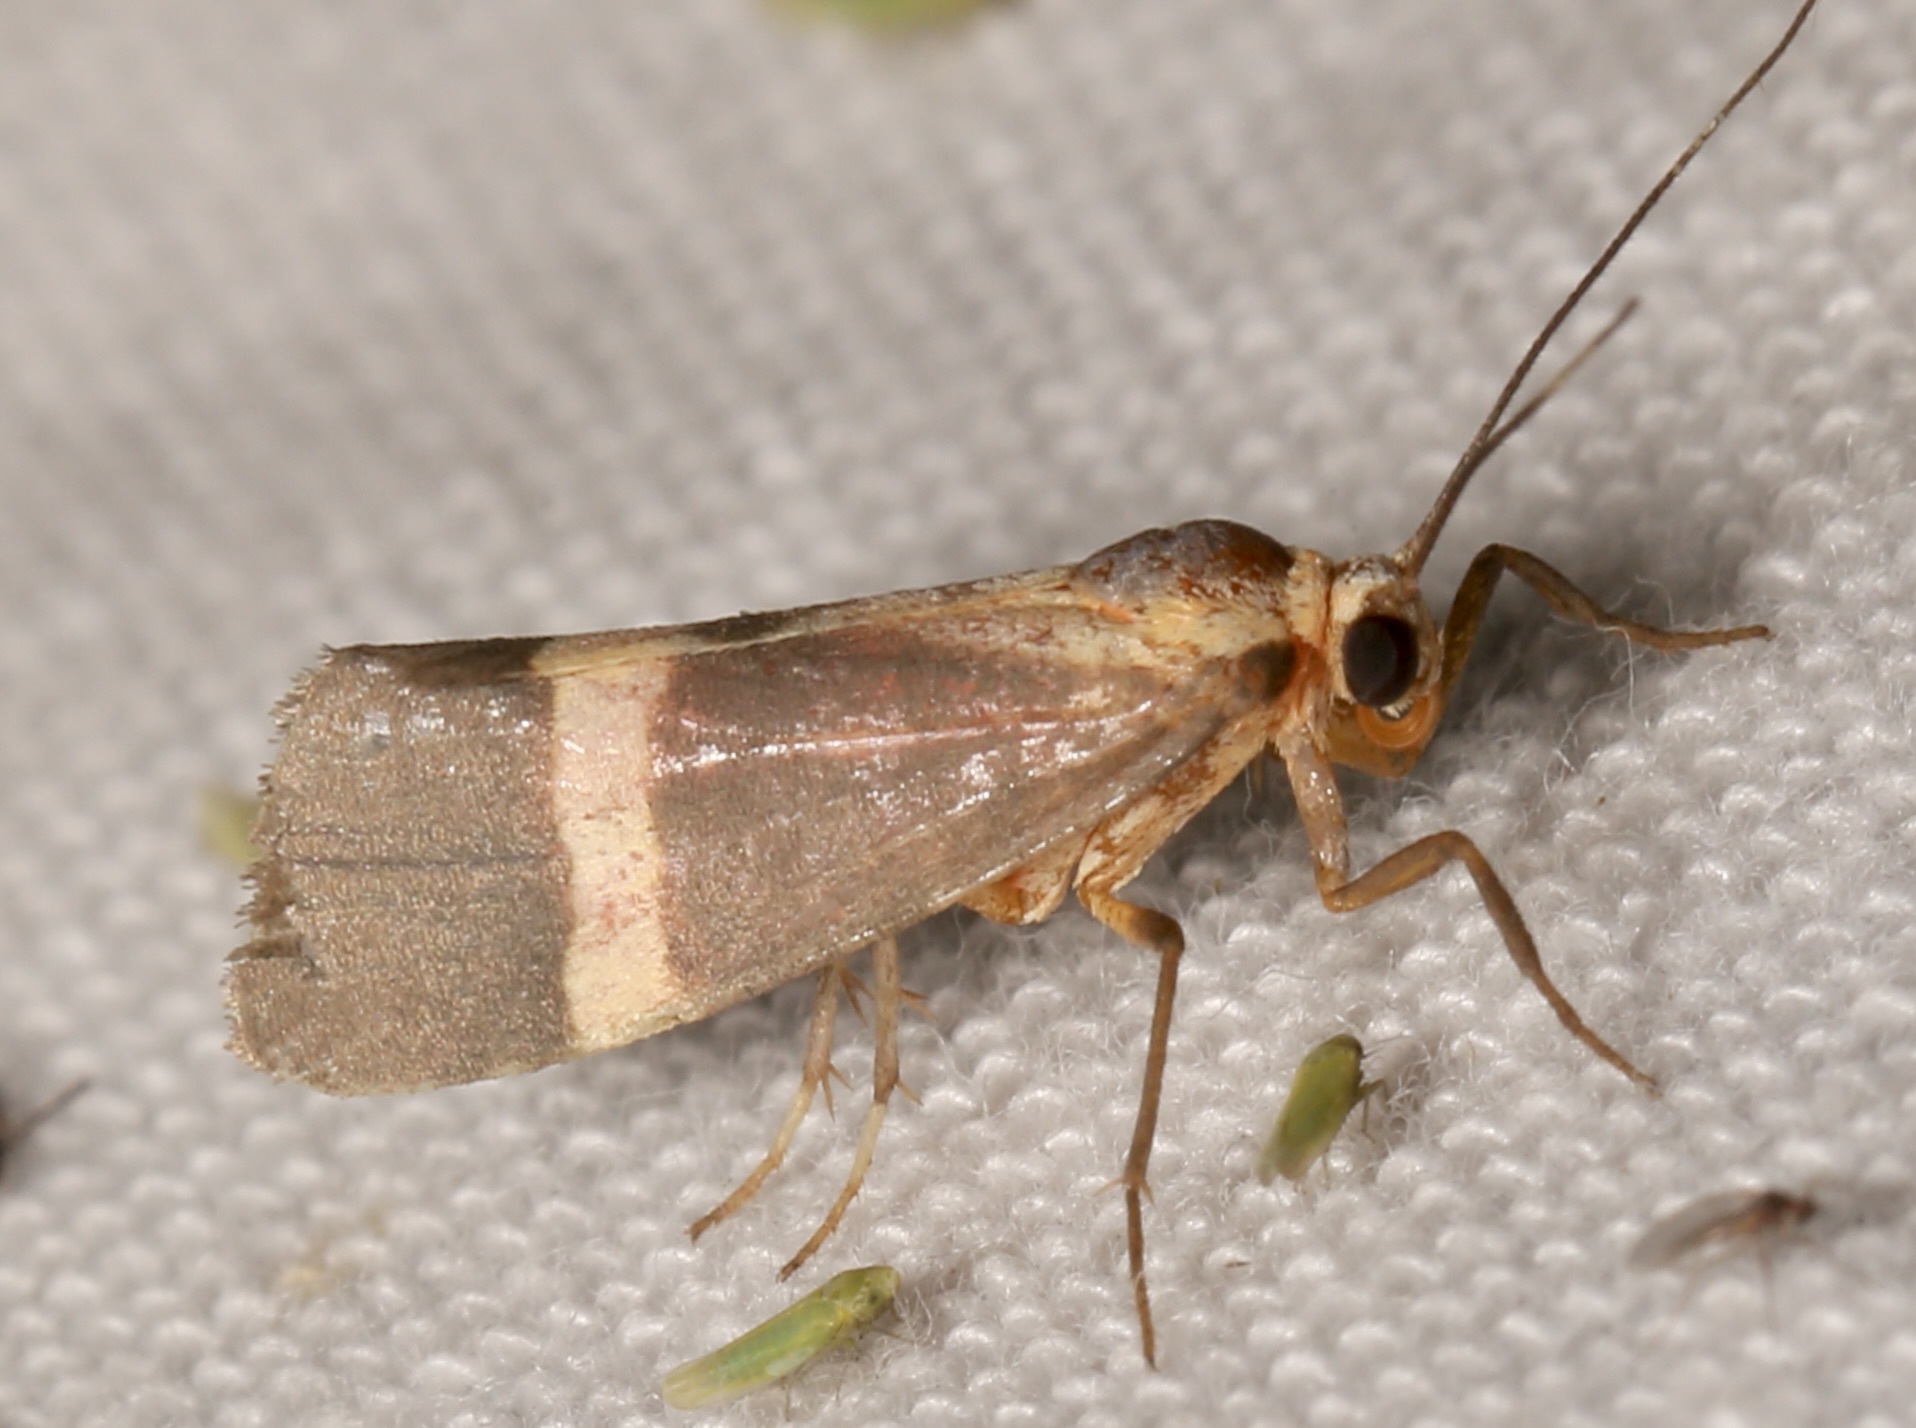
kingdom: Animalia
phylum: Arthropoda
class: Insecta
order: Lepidoptera
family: Erebidae
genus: Cisthene
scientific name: Cisthene tenuifascia
